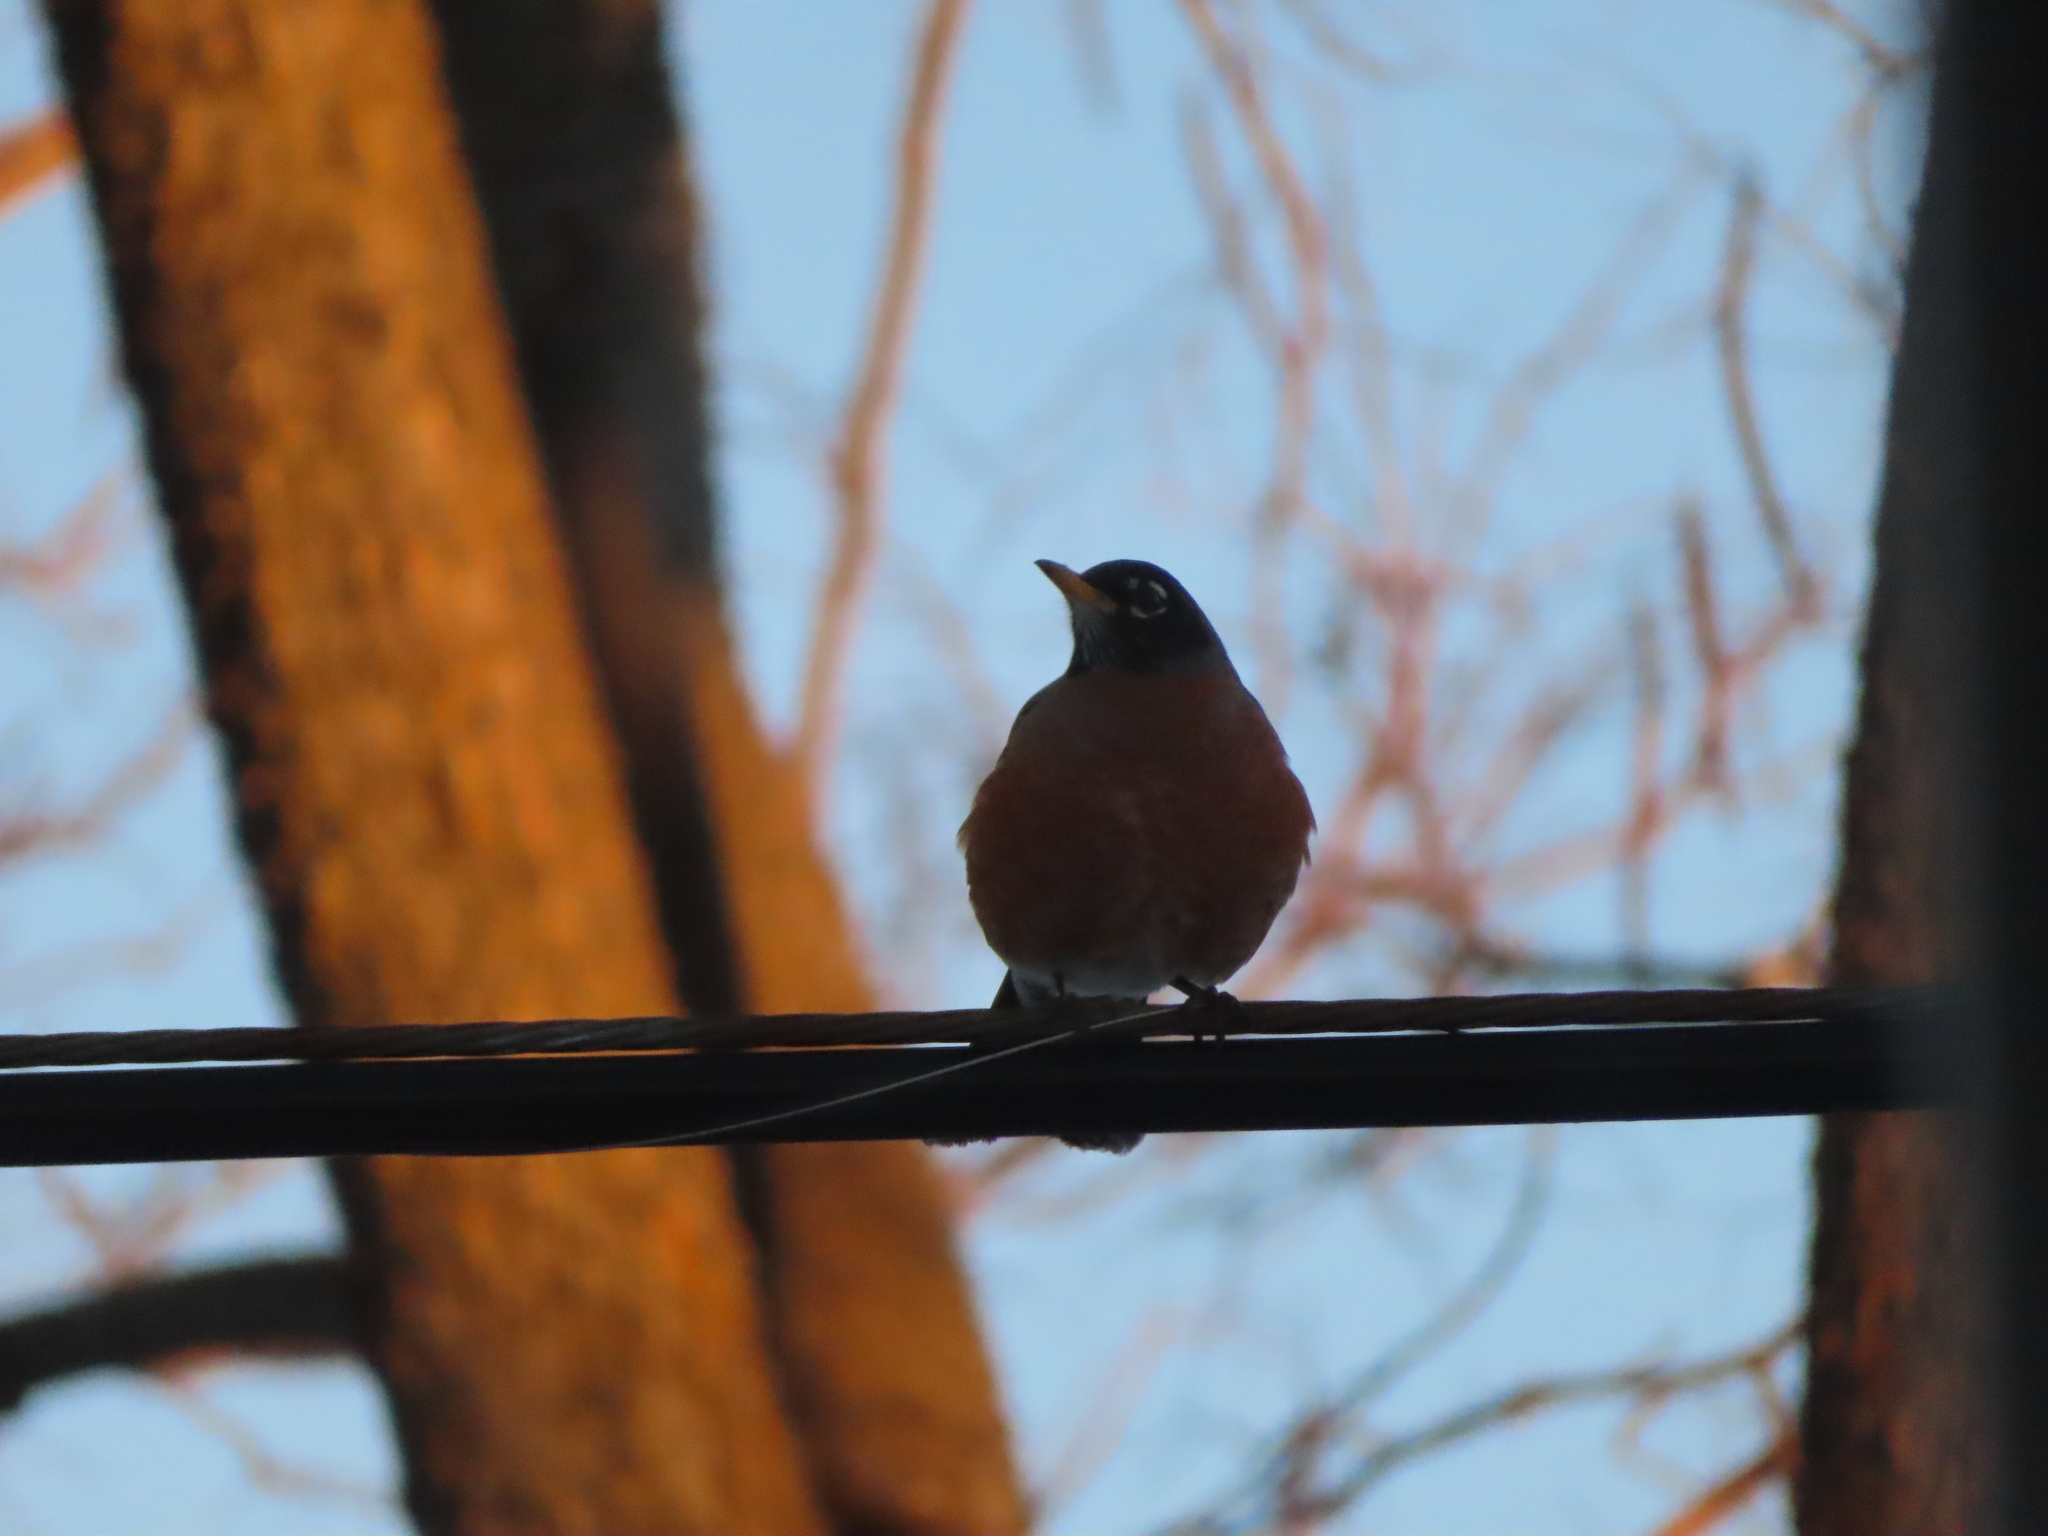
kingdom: Animalia
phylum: Chordata
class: Aves
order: Passeriformes
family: Turdidae
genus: Turdus
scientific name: Turdus migratorius
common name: American robin
